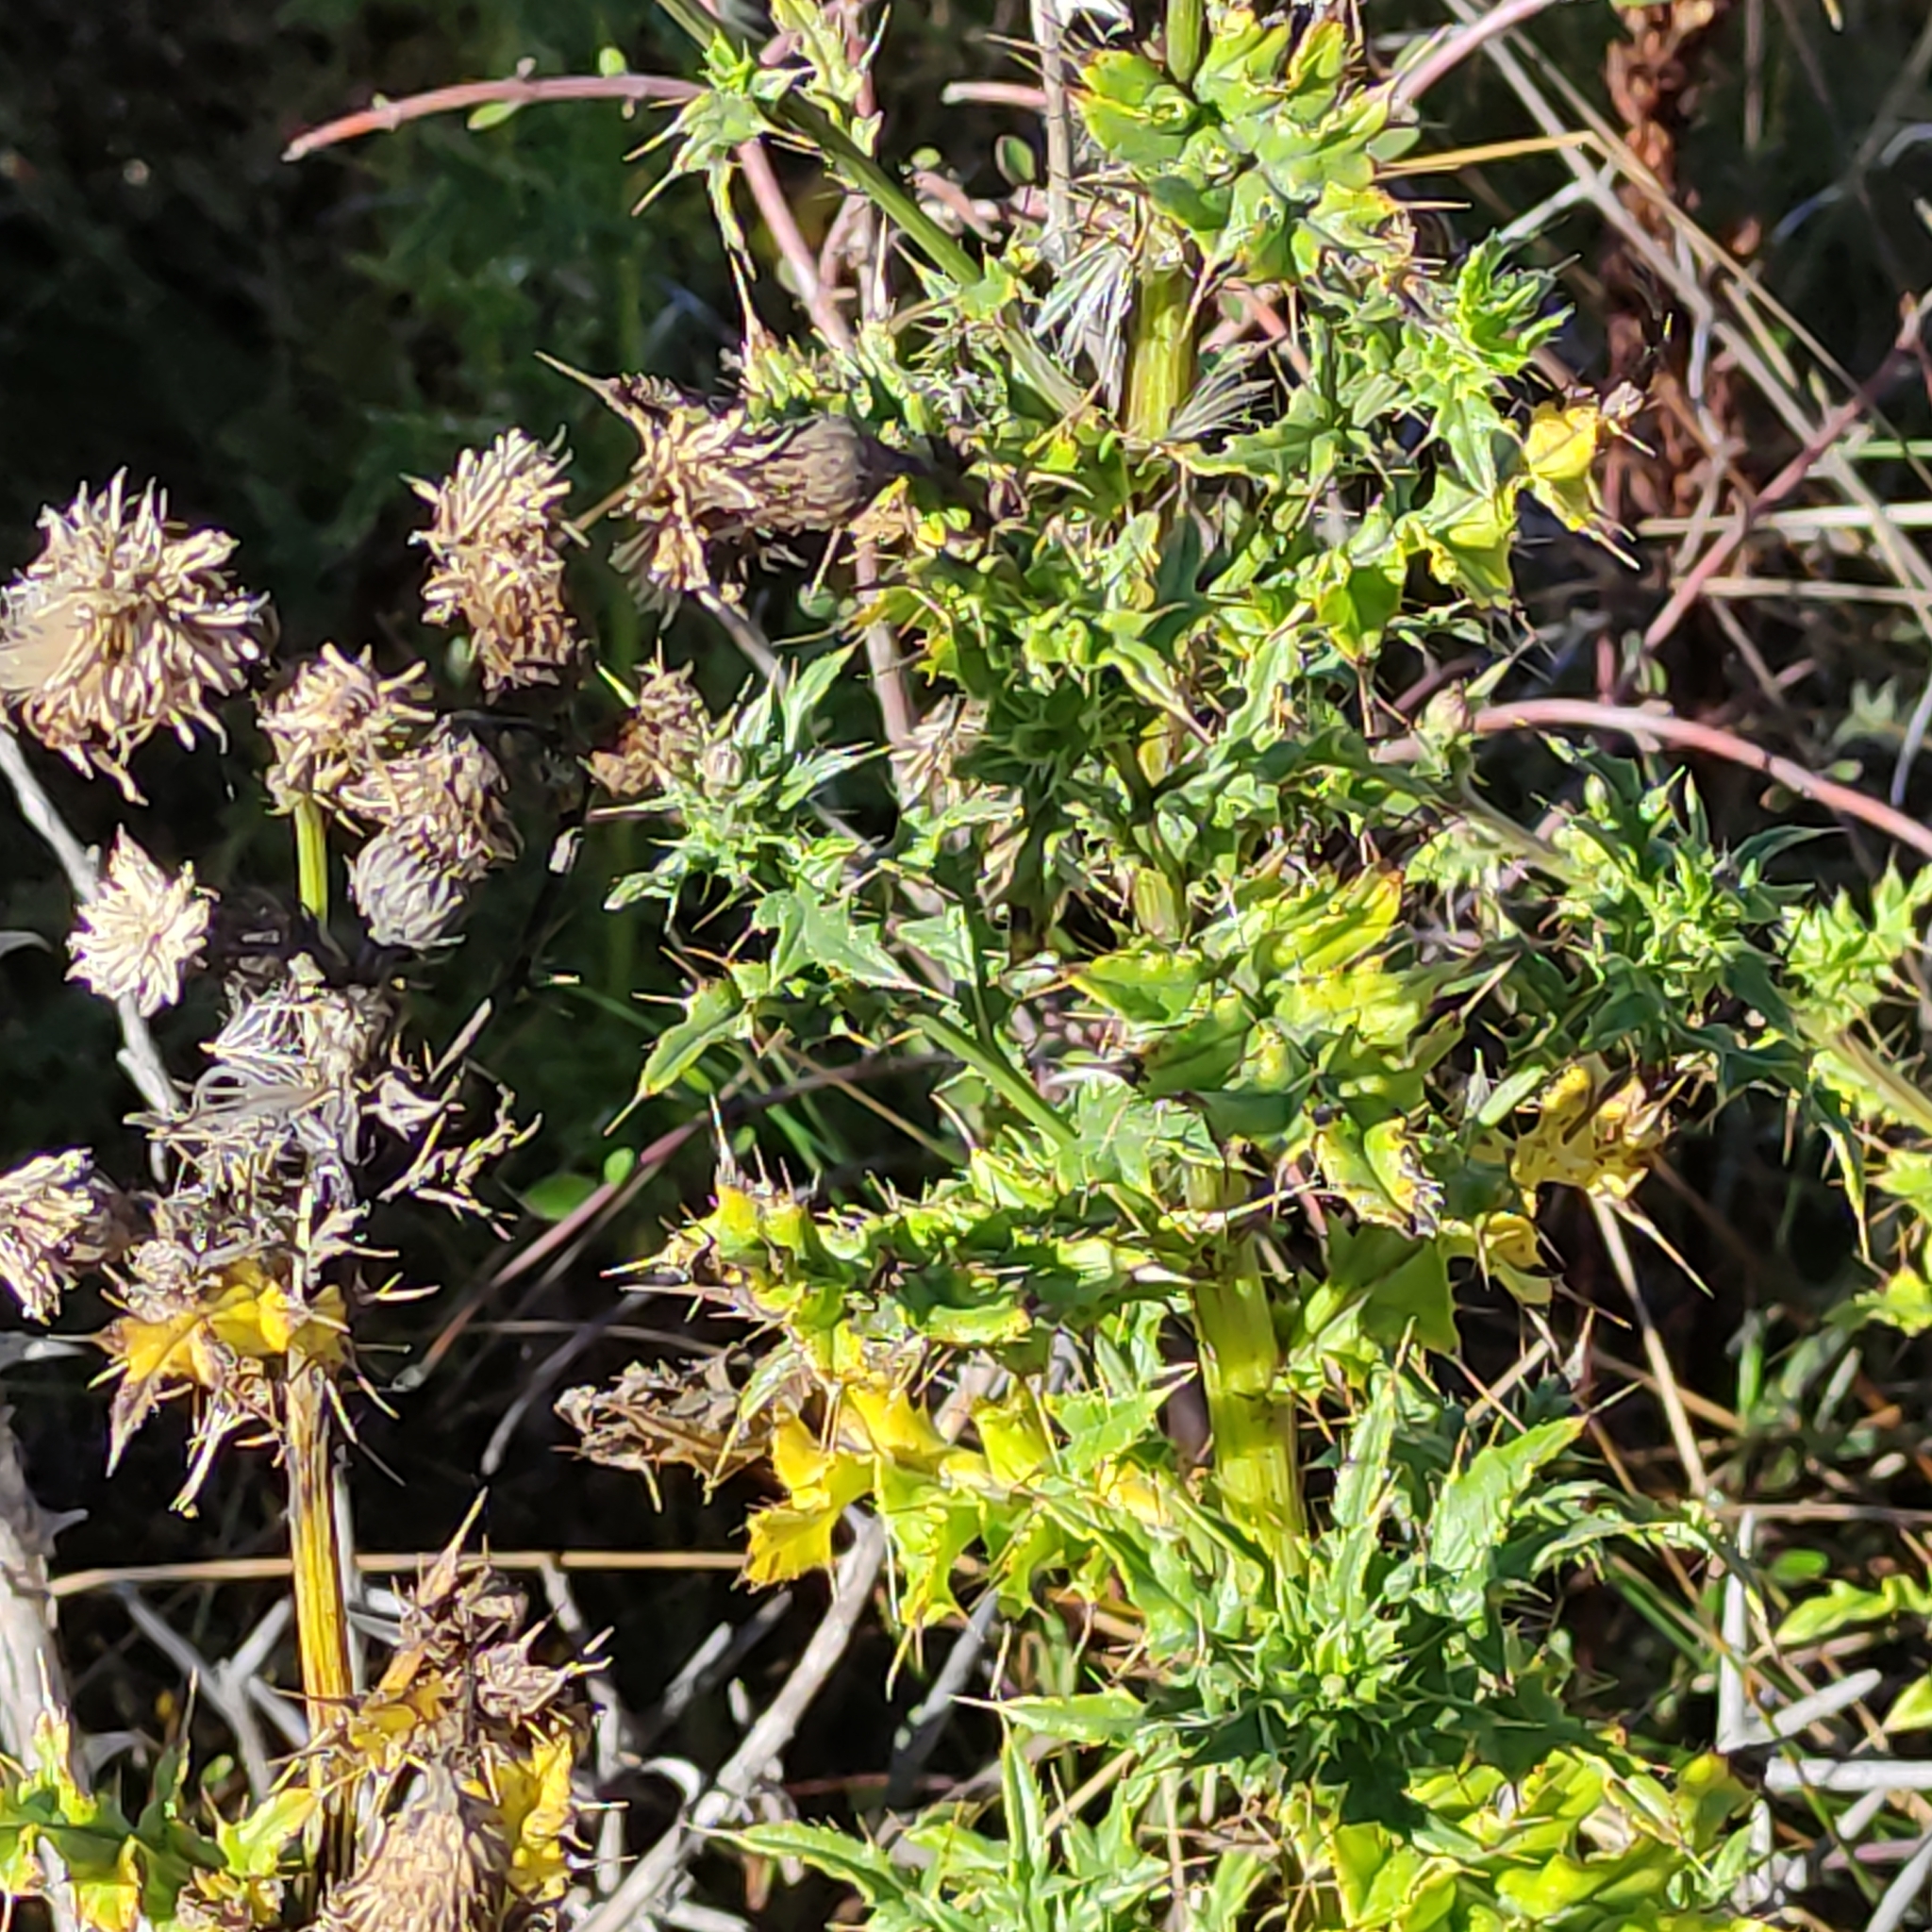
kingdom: Plantae
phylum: Tracheophyta
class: Magnoliopsida
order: Asterales
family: Asteraceae
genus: Cirsium
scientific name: Cirsium arvense
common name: Creeping thistle
